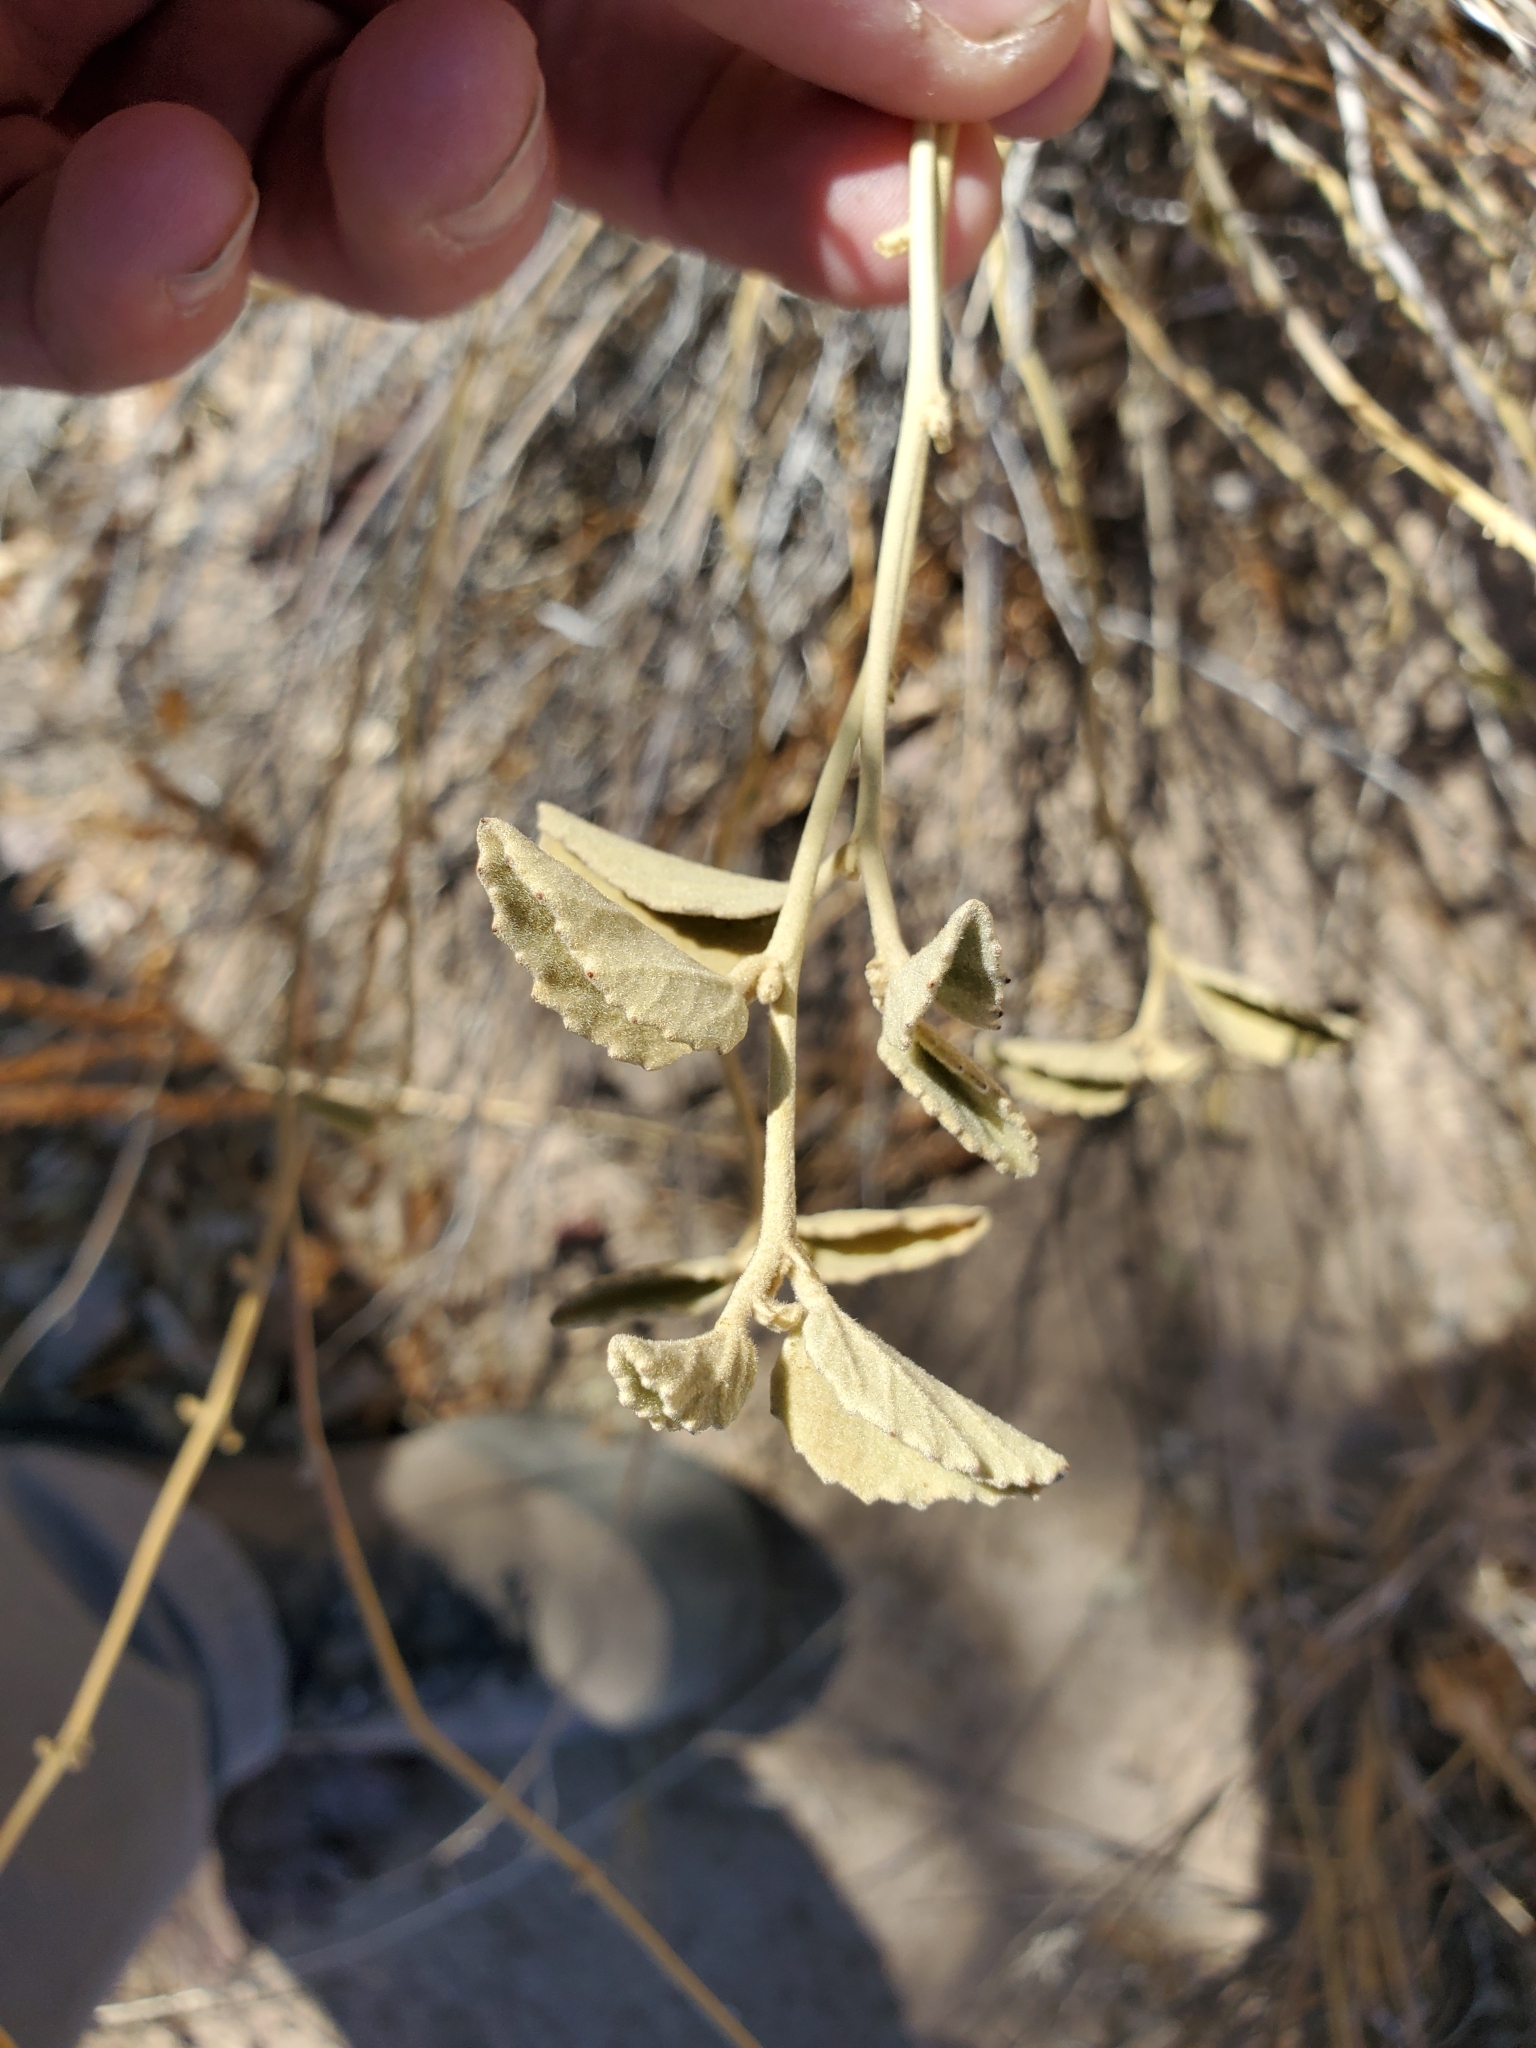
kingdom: Plantae
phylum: Tracheophyta
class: Magnoliopsida
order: Malvales
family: Malvaceae
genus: Hibiscus
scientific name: Hibiscus denudatus
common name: Paleface
